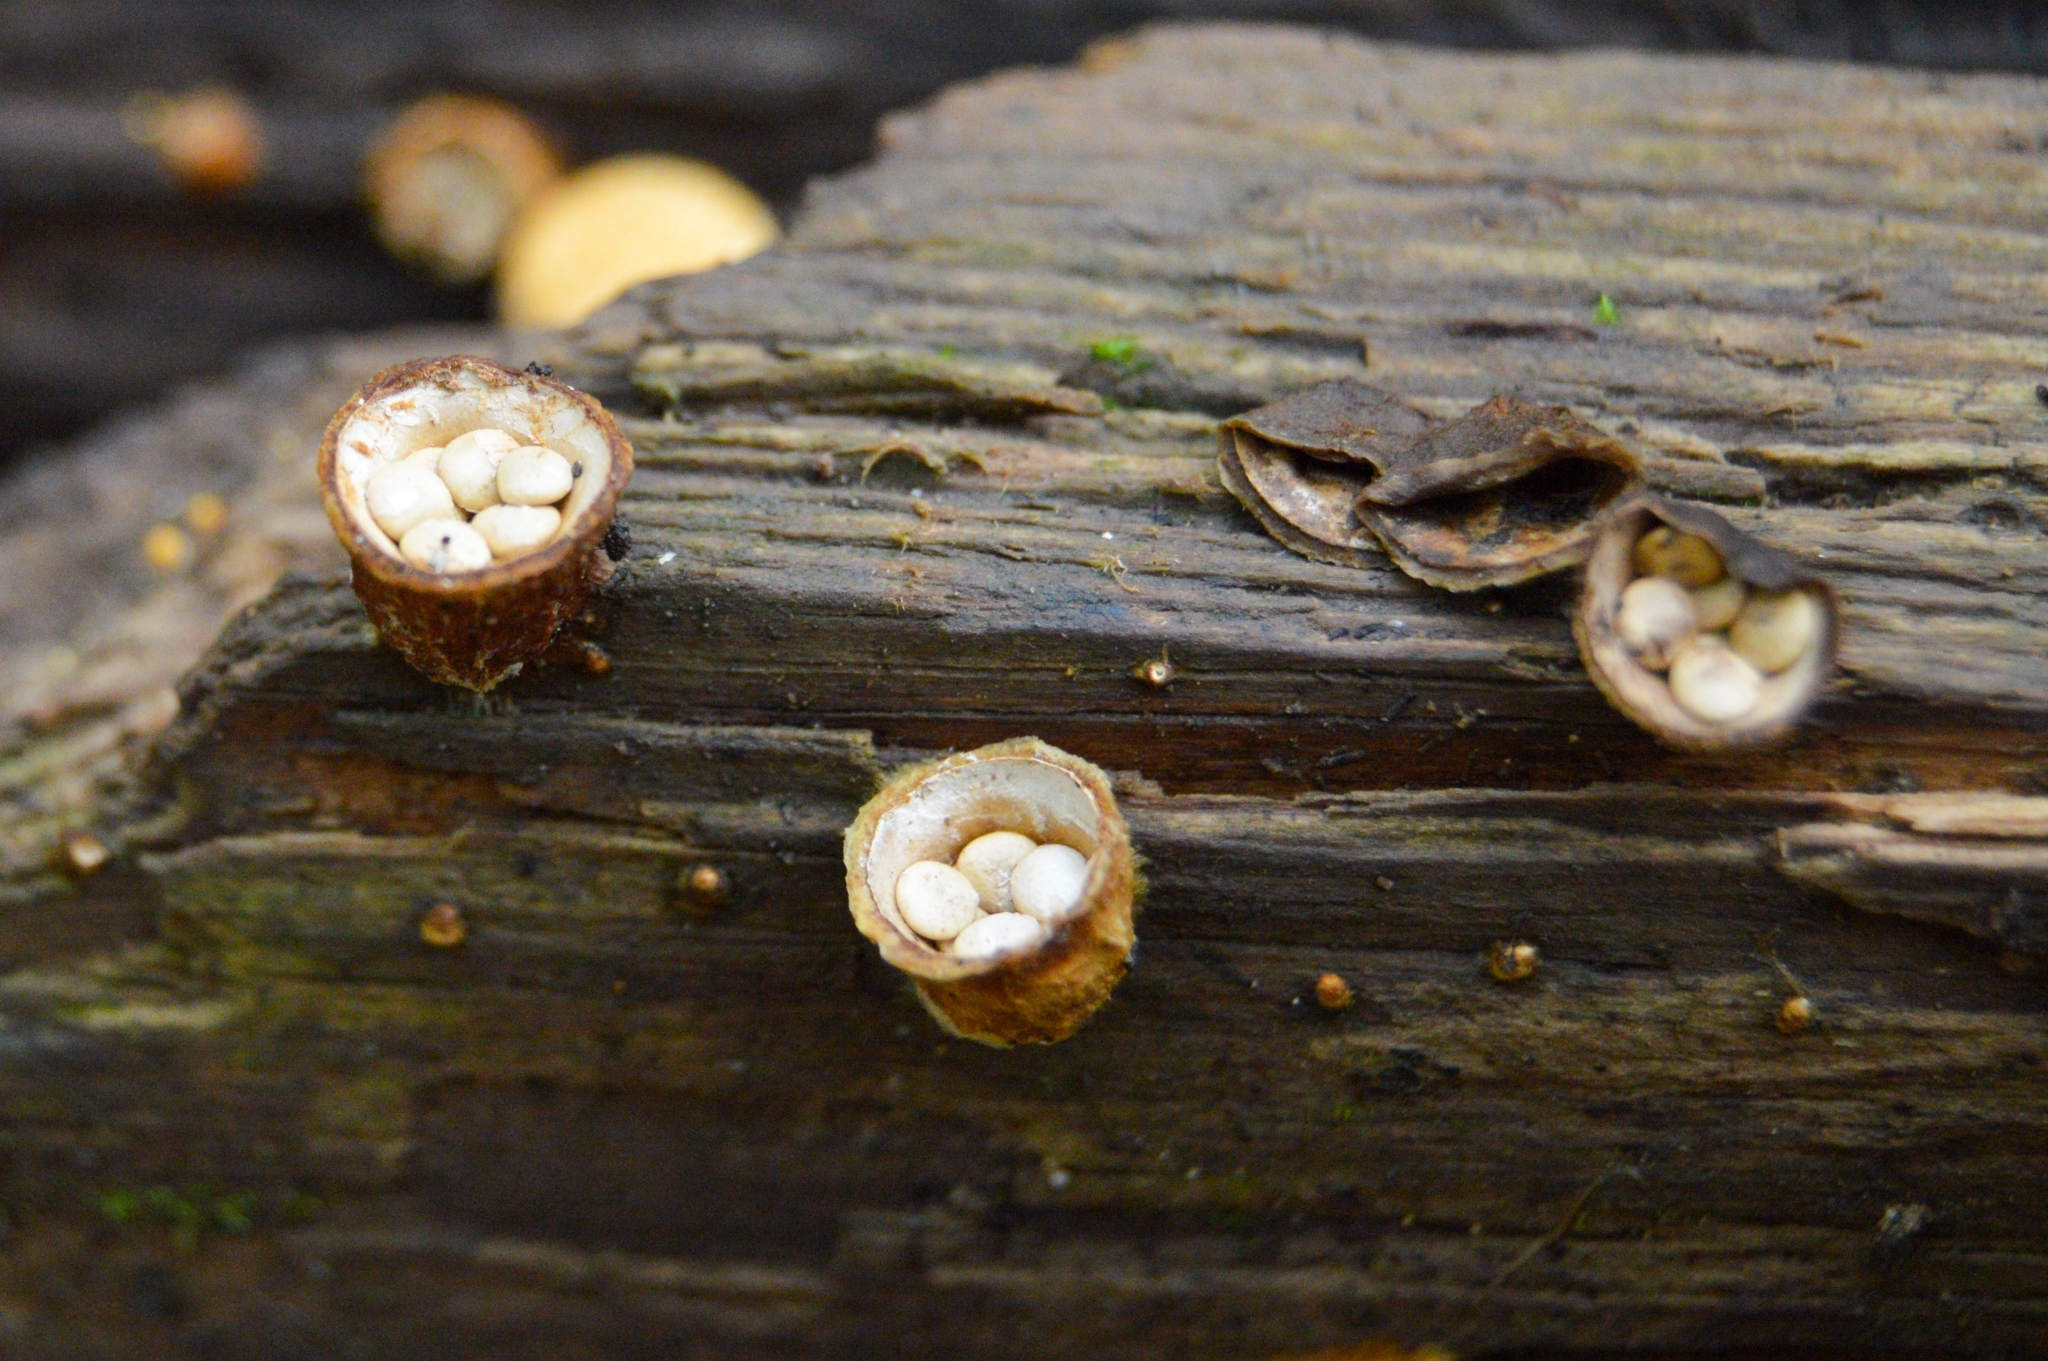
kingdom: Fungi
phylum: Basidiomycota
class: Agaricomycetes
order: Agaricales
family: Nidulariaceae
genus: Crucibulum
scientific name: Crucibulum laeve
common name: Common bird's nest
